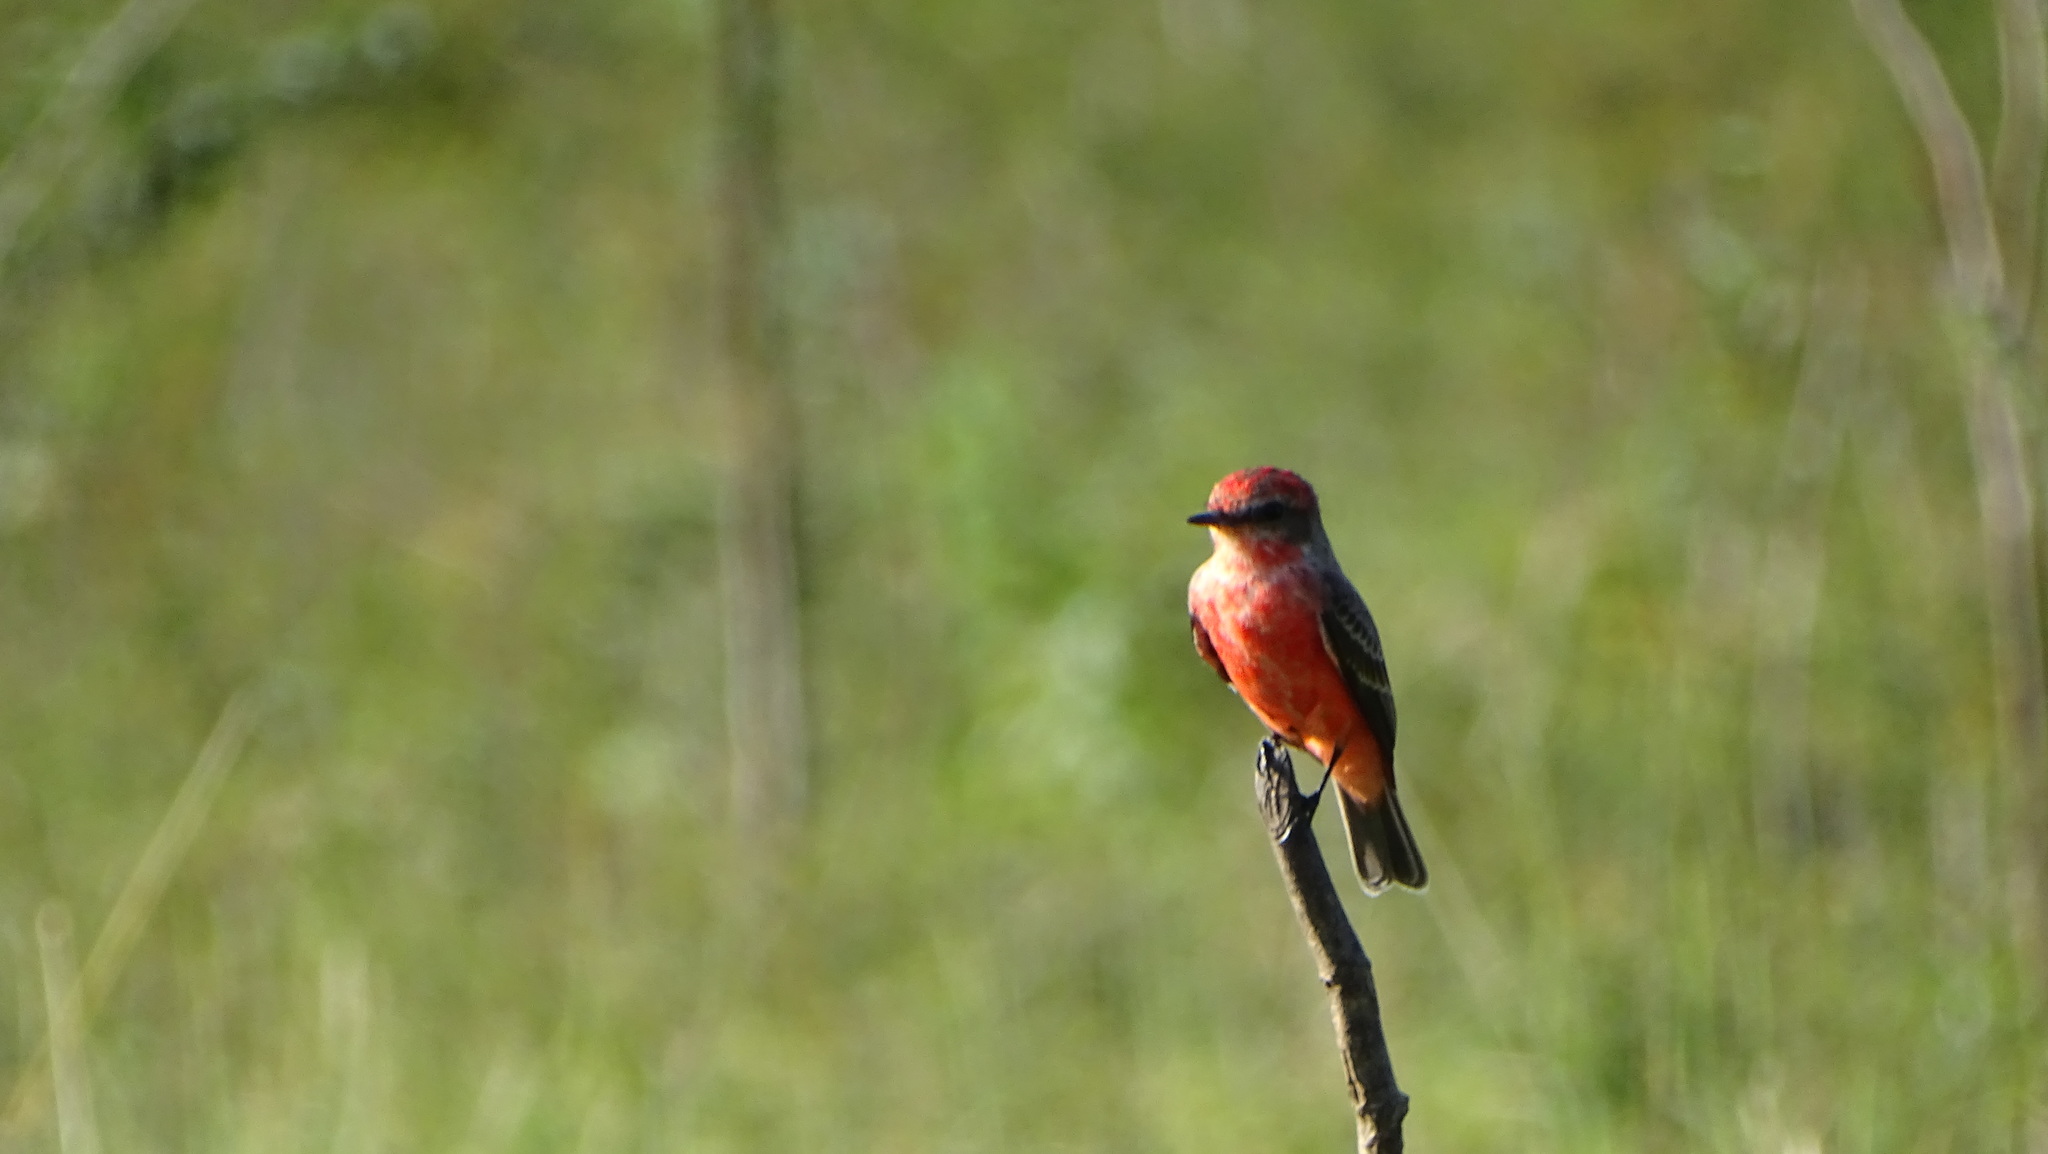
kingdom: Animalia
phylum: Chordata
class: Aves
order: Passeriformes
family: Tyrannidae
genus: Pyrocephalus
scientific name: Pyrocephalus rubinus
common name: Vermilion flycatcher
